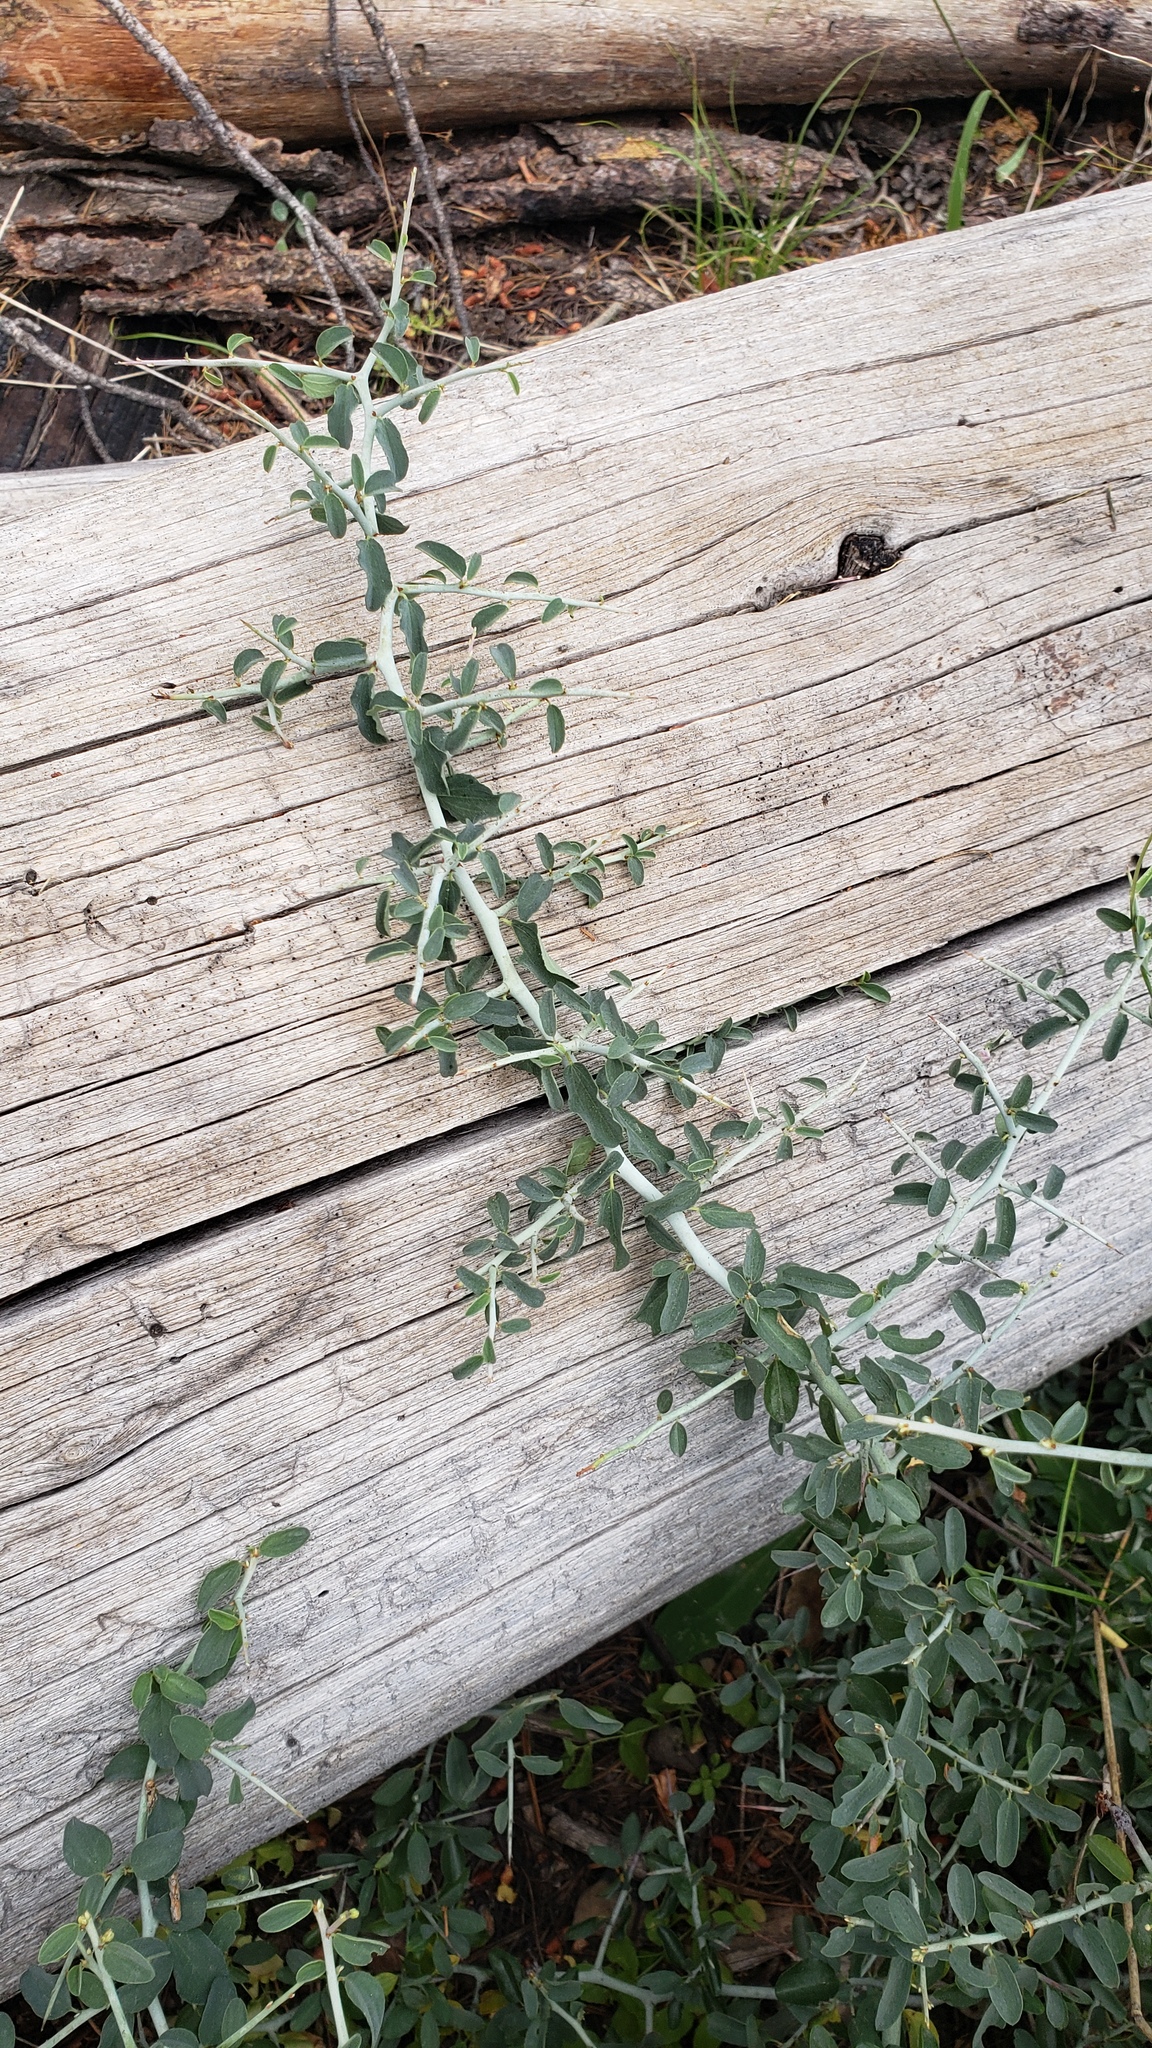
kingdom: Plantae
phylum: Tracheophyta
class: Magnoliopsida
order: Rosales
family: Rhamnaceae
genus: Ceanothus
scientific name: Ceanothus cordulatus
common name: Mountain whitethorn
